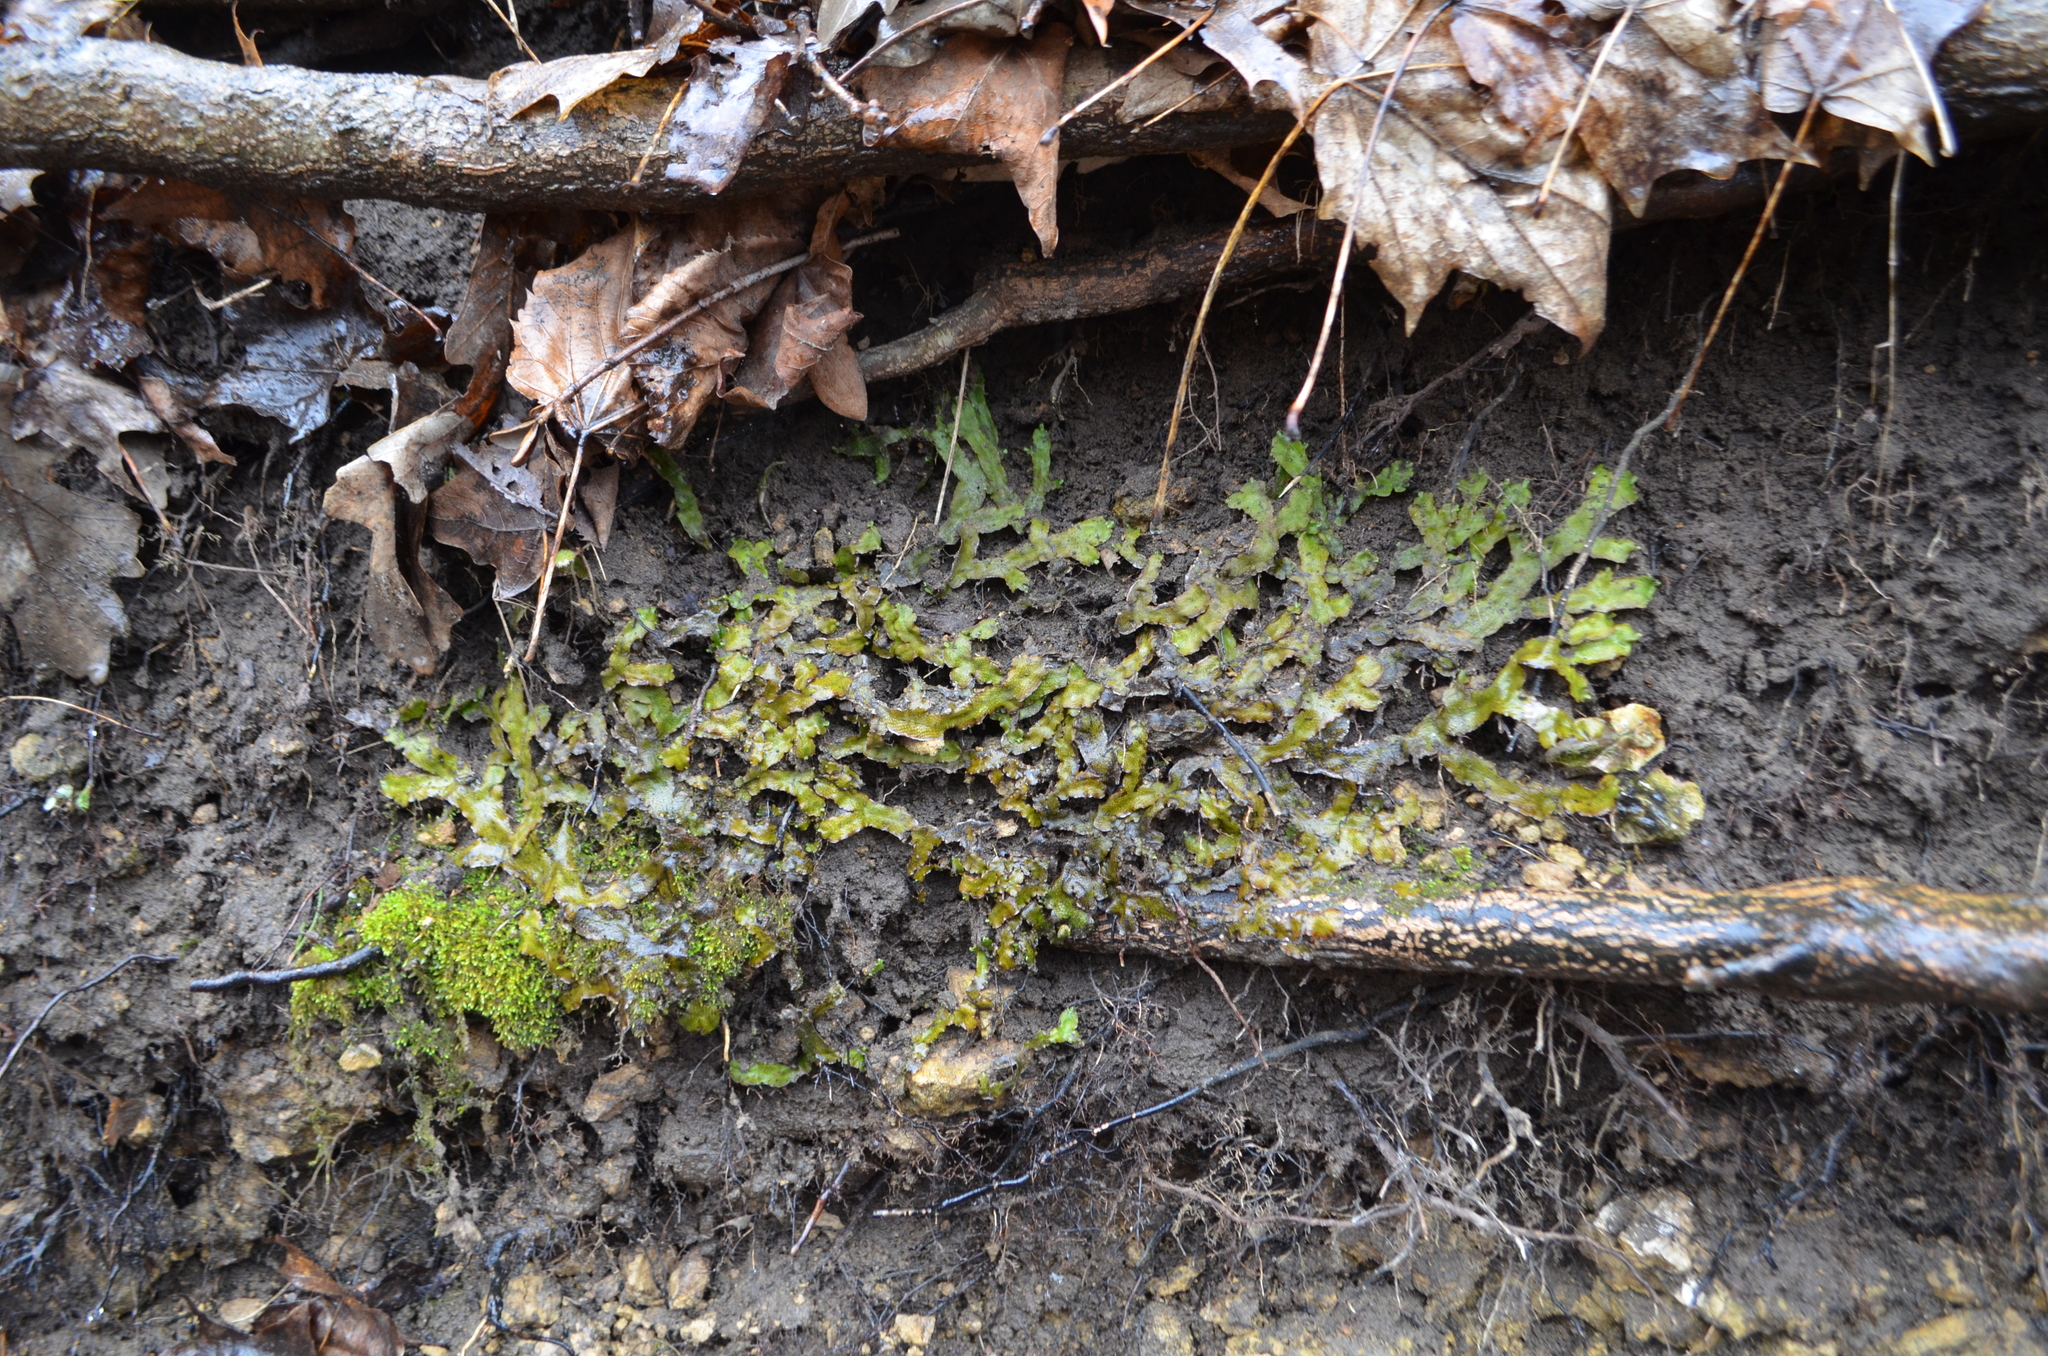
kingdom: Plantae
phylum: Marchantiophyta
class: Marchantiopsida
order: Marchantiales
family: Conocephalaceae
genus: Conocephalum
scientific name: Conocephalum salebrosum
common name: Cat-tongue liverwort
